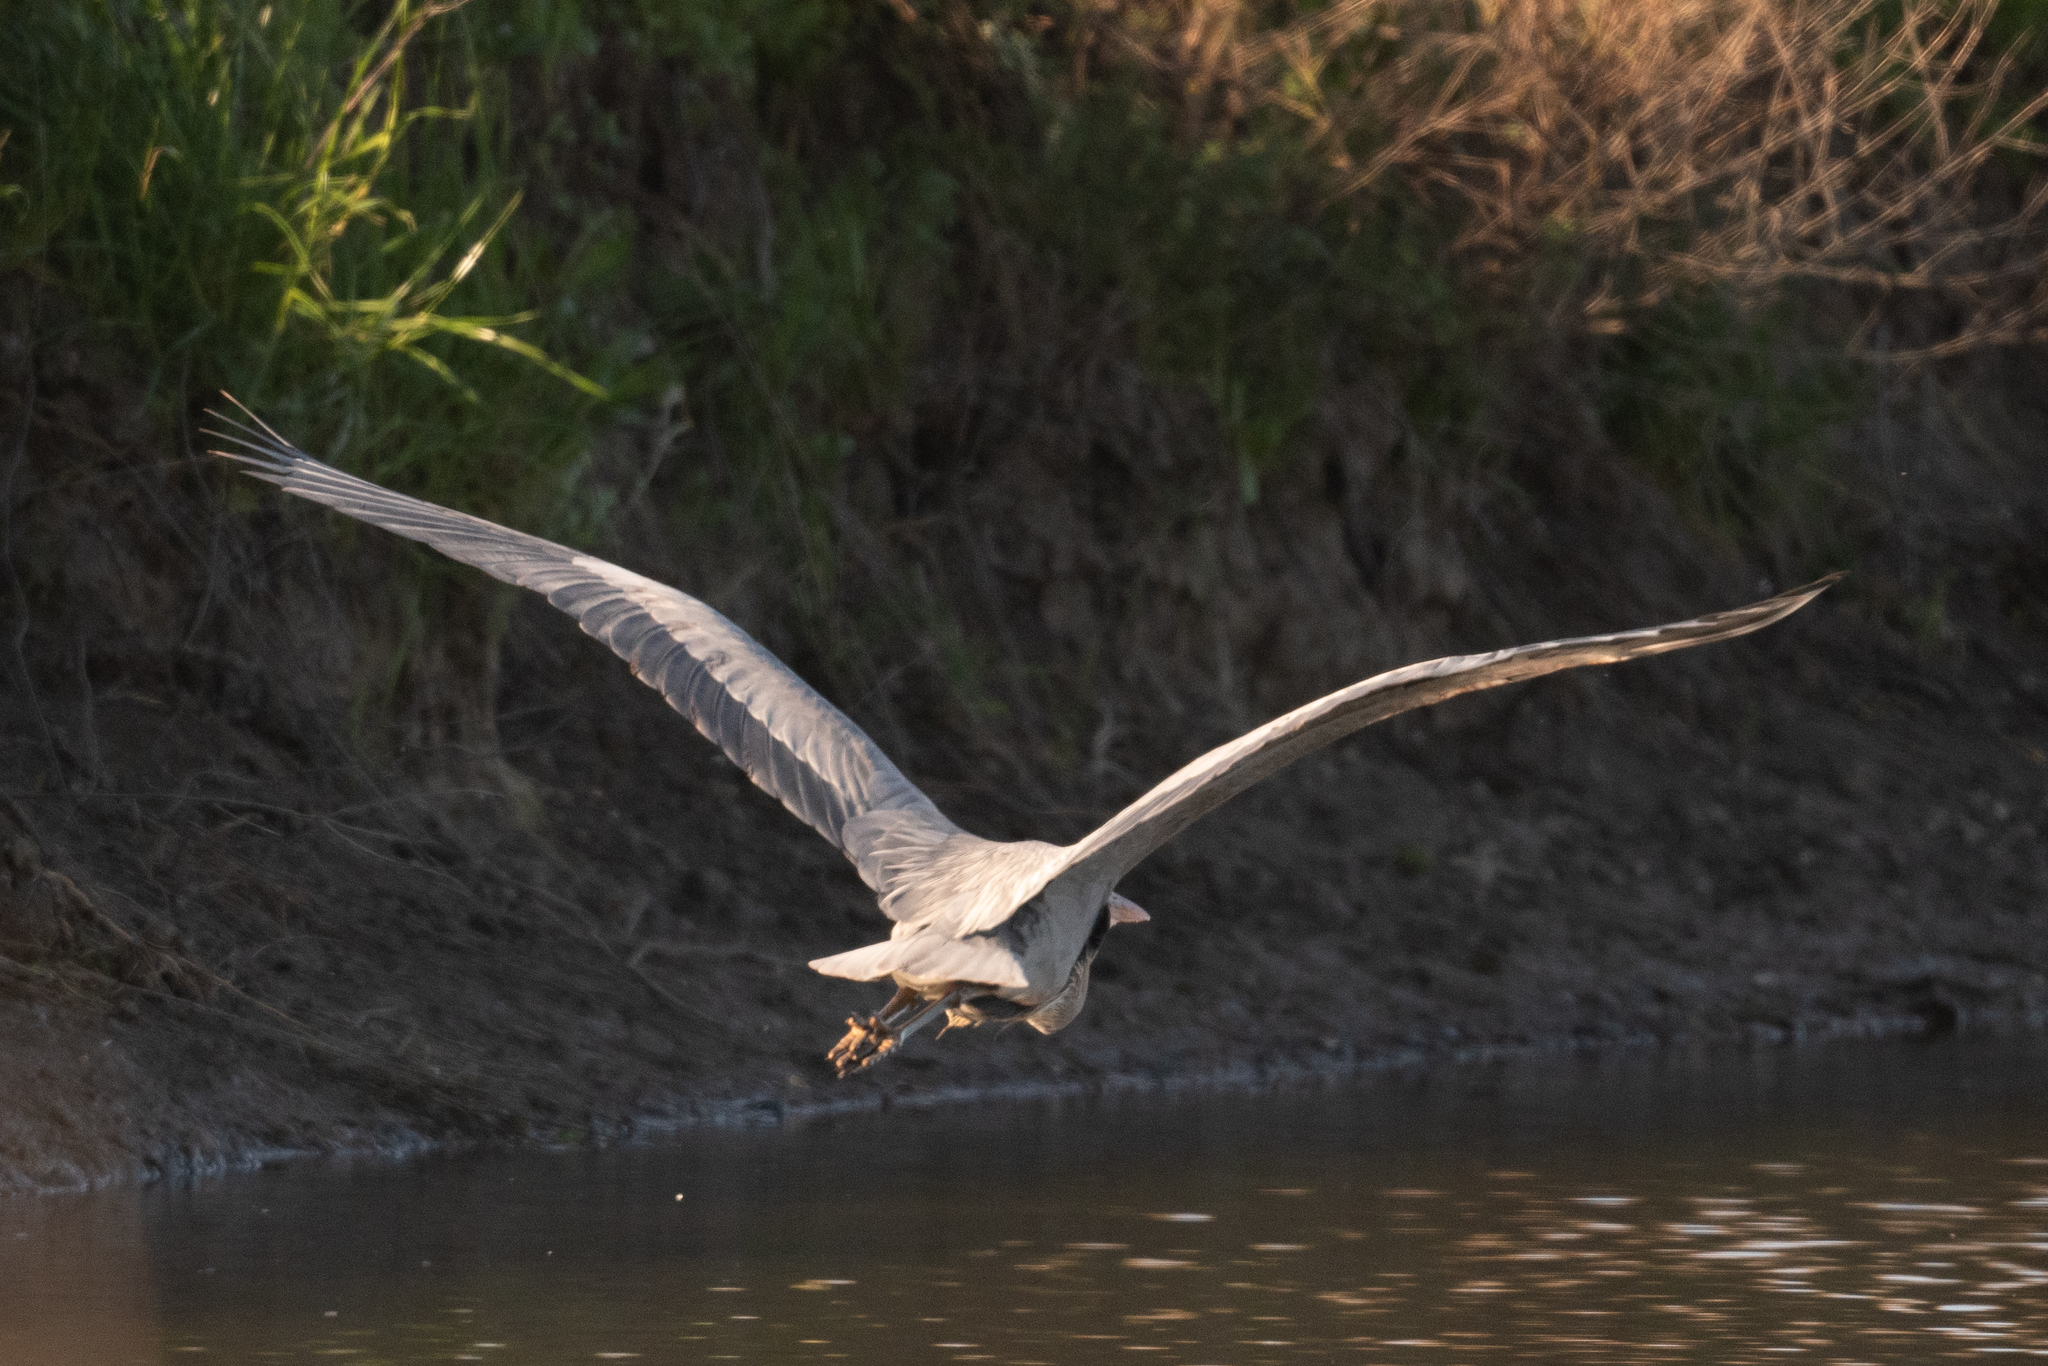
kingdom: Animalia
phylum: Chordata
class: Aves
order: Pelecaniformes
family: Ardeidae
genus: Ardea
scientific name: Ardea herodias
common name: Great blue heron
